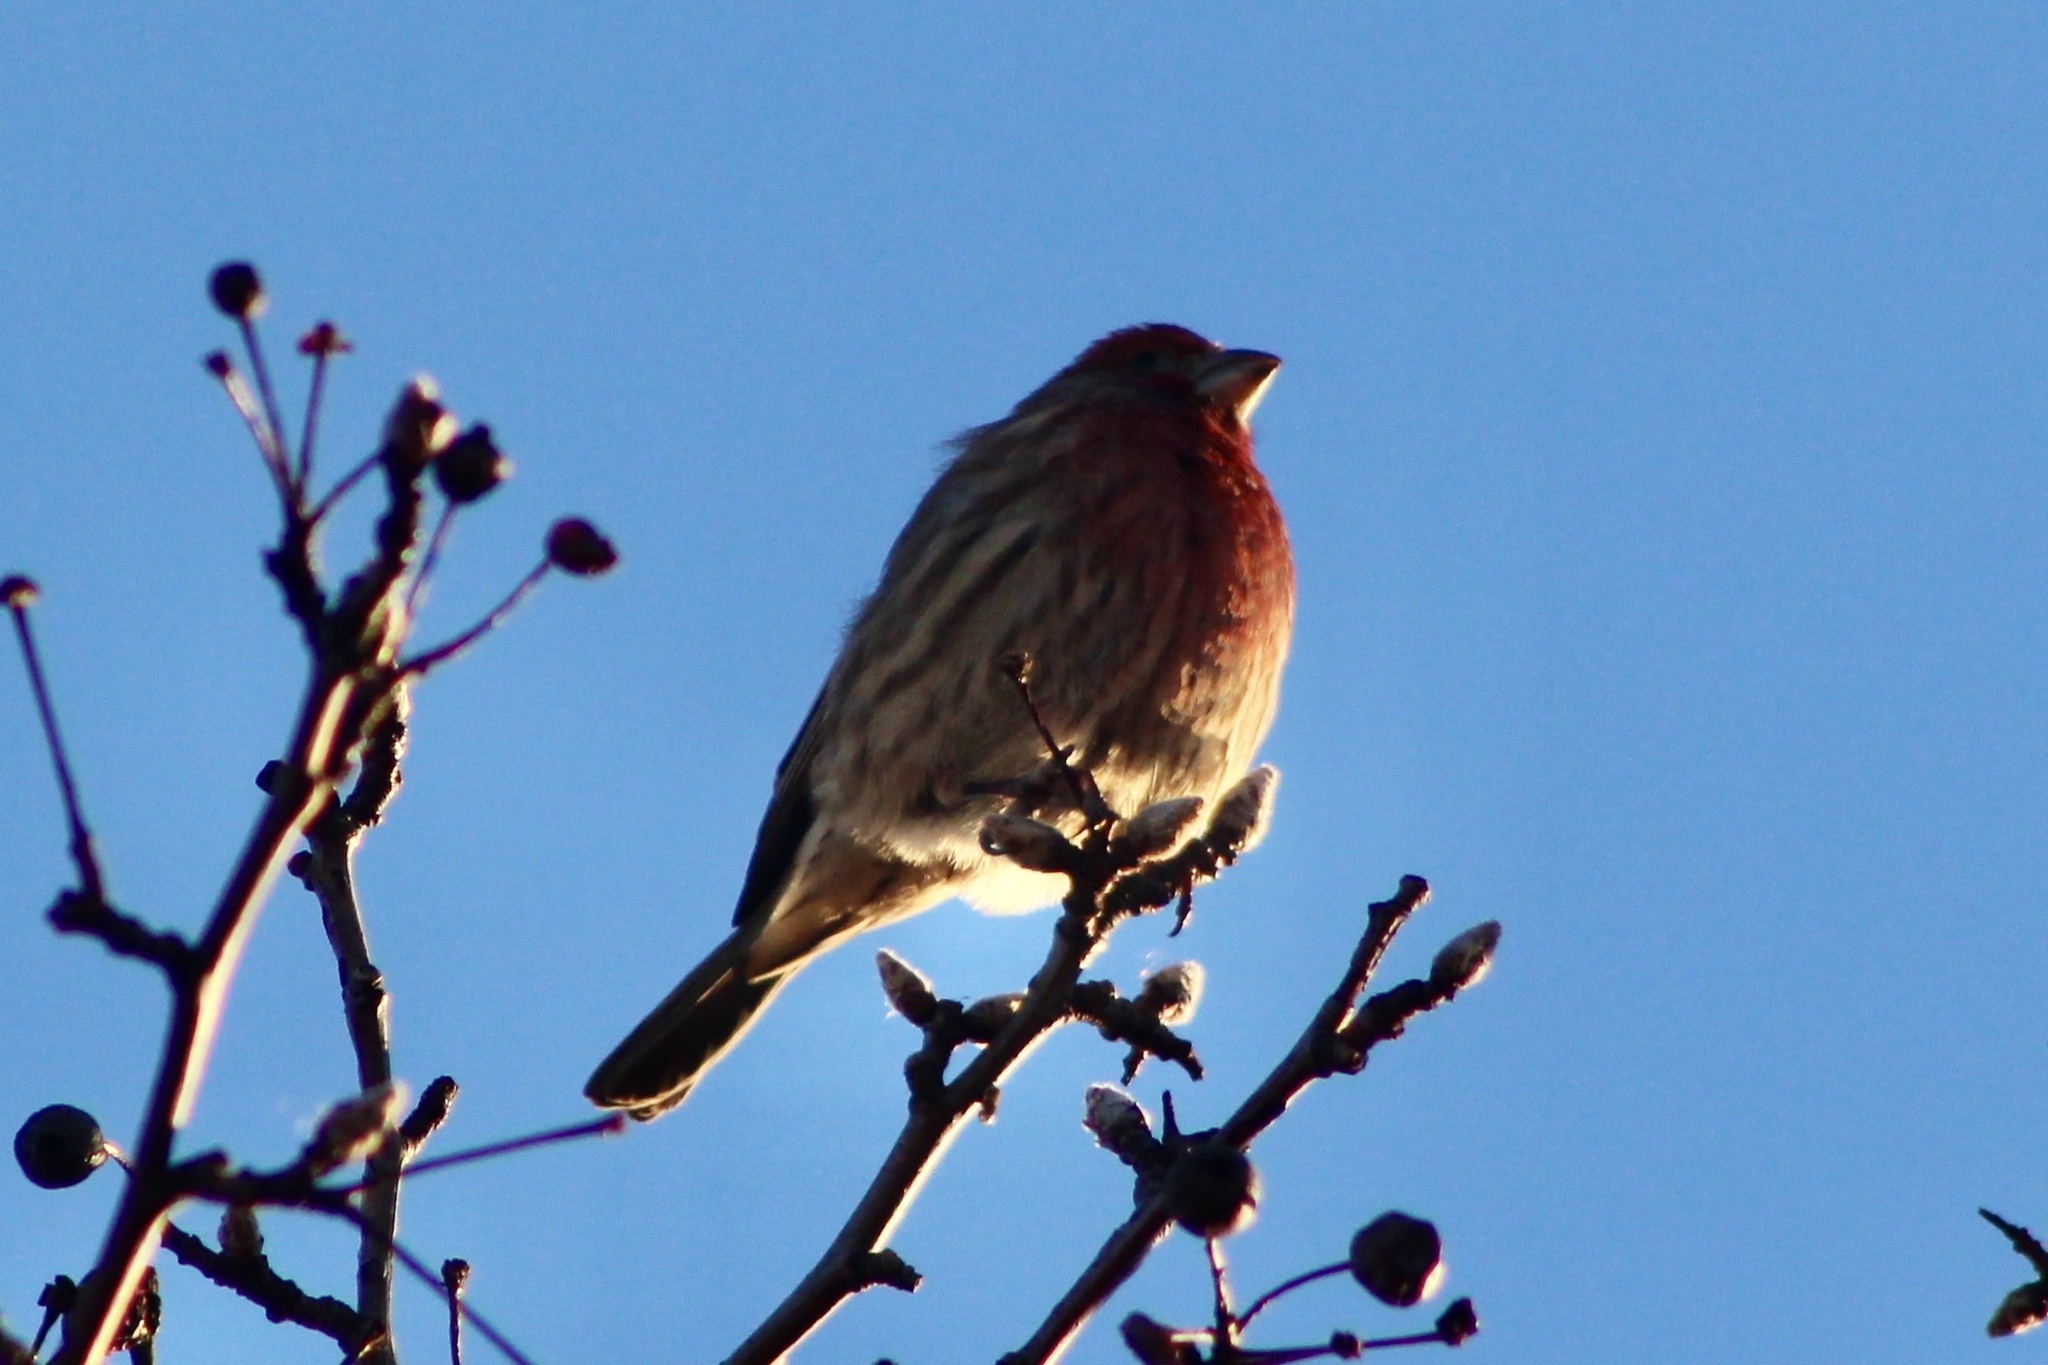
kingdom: Animalia
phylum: Chordata
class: Aves
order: Passeriformes
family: Fringillidae
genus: Haemorhous
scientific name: Haemorhous mexicanus
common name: House finch
